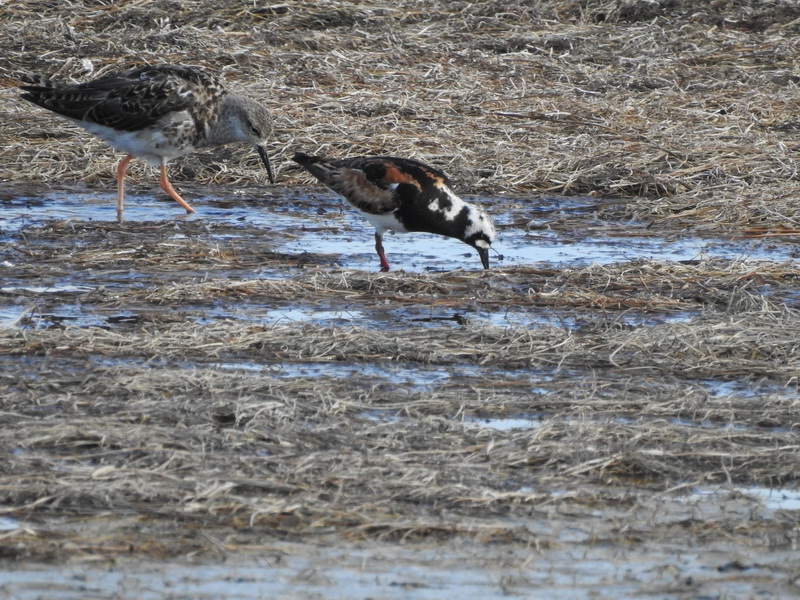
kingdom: Animalia
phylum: Chordata
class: Aves
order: Charadriiformes
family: Scolopacidae
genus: Arenaria
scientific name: Arenaria interpres
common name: Ruddy turnstone
